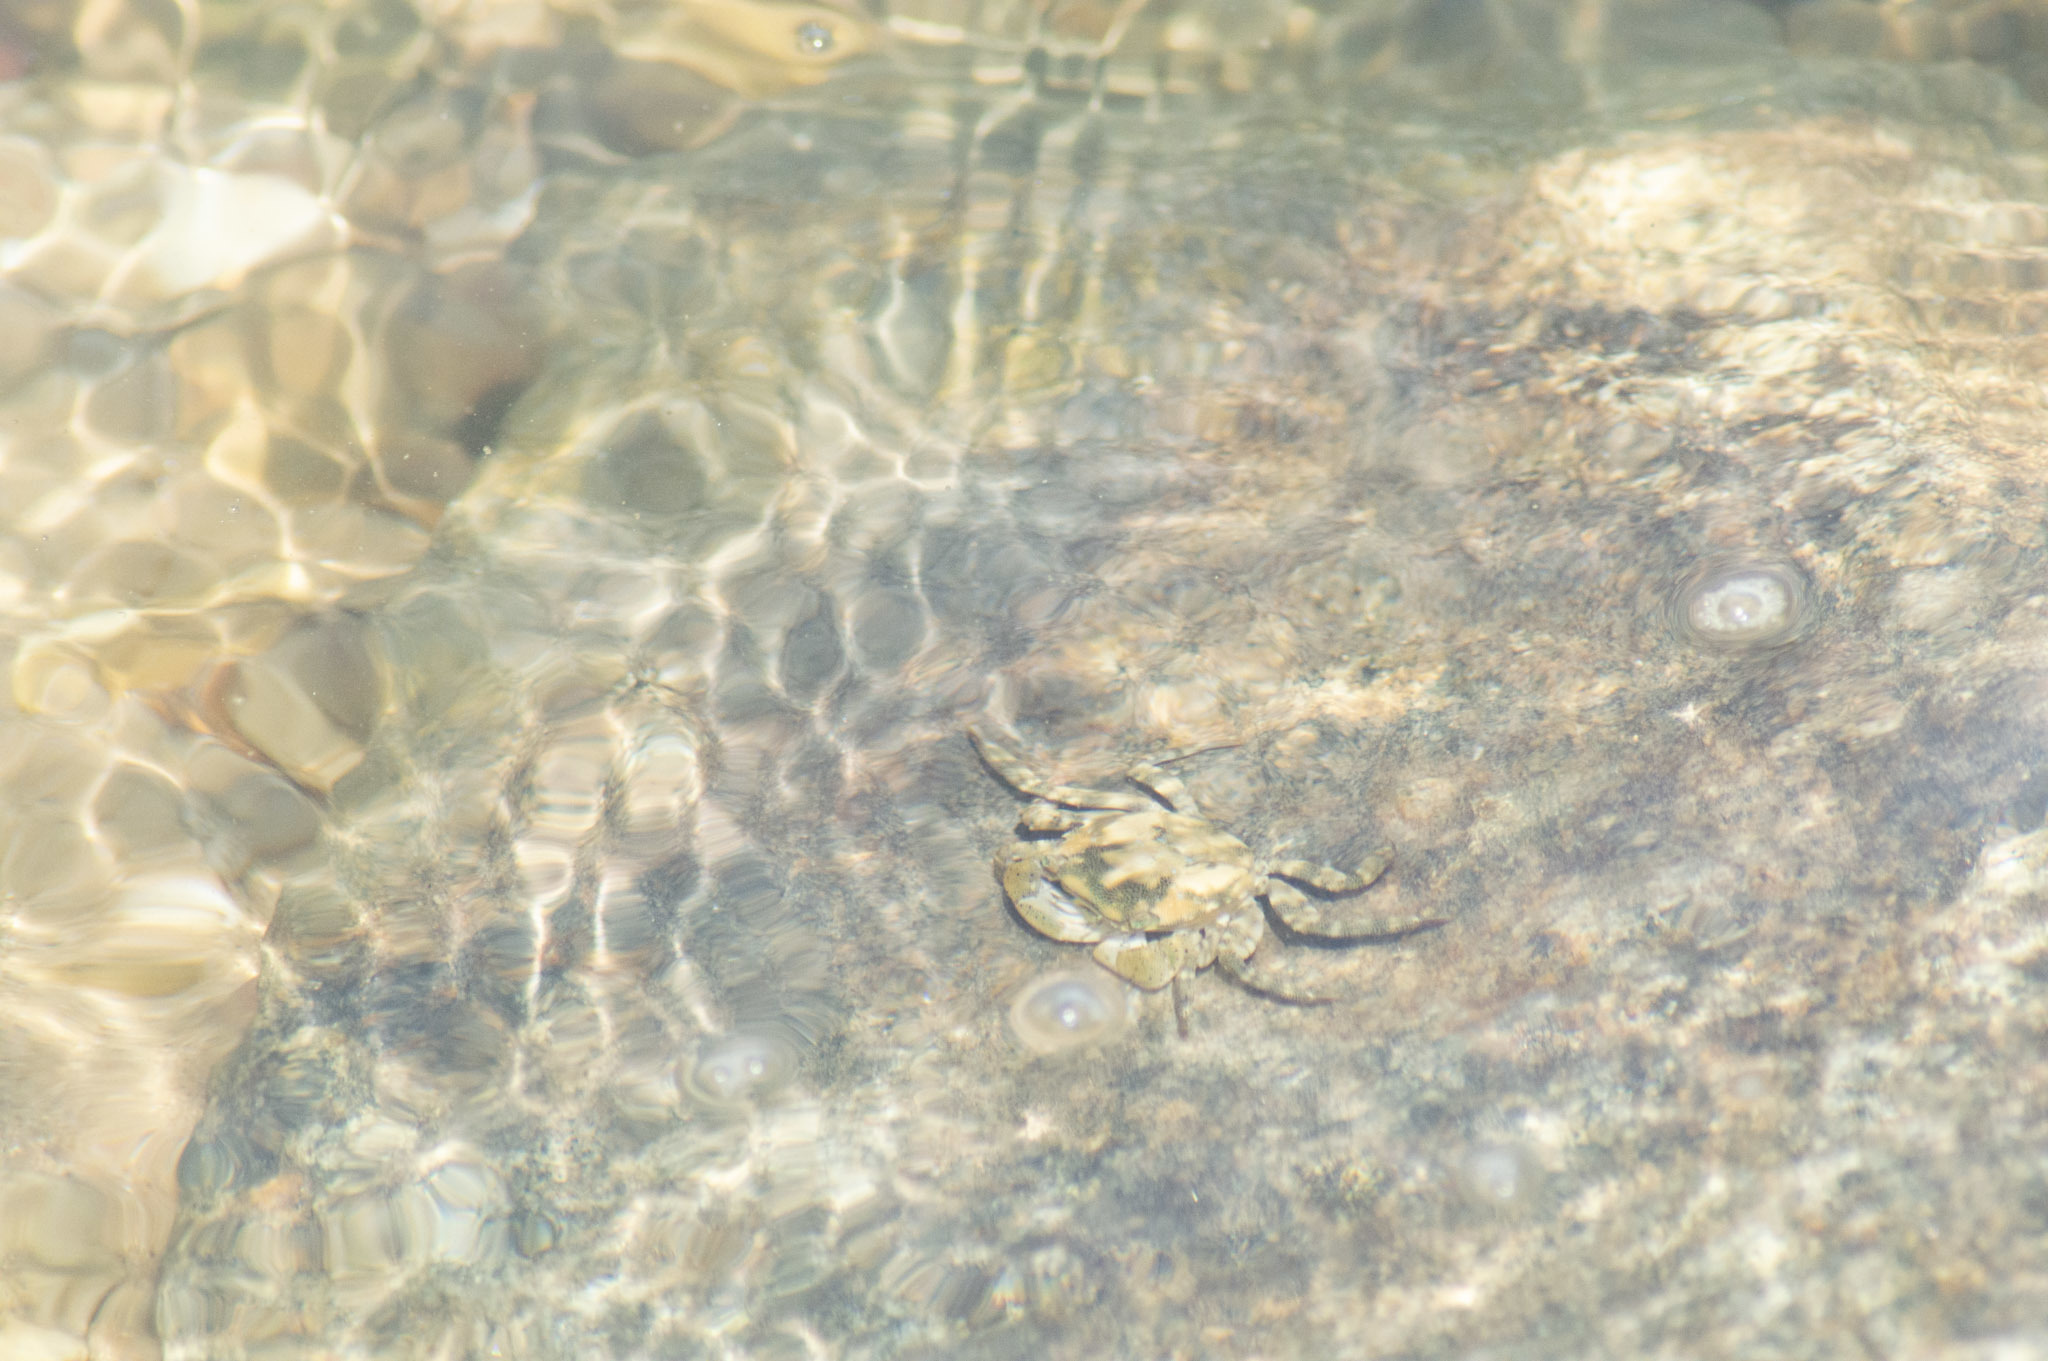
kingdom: Animalia
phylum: Arthropoda
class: Malacostraca
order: Decapoda
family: Varunidae
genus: Hemigrapsus
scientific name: Hemigrapsus sanguineus
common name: Asian shore crab
